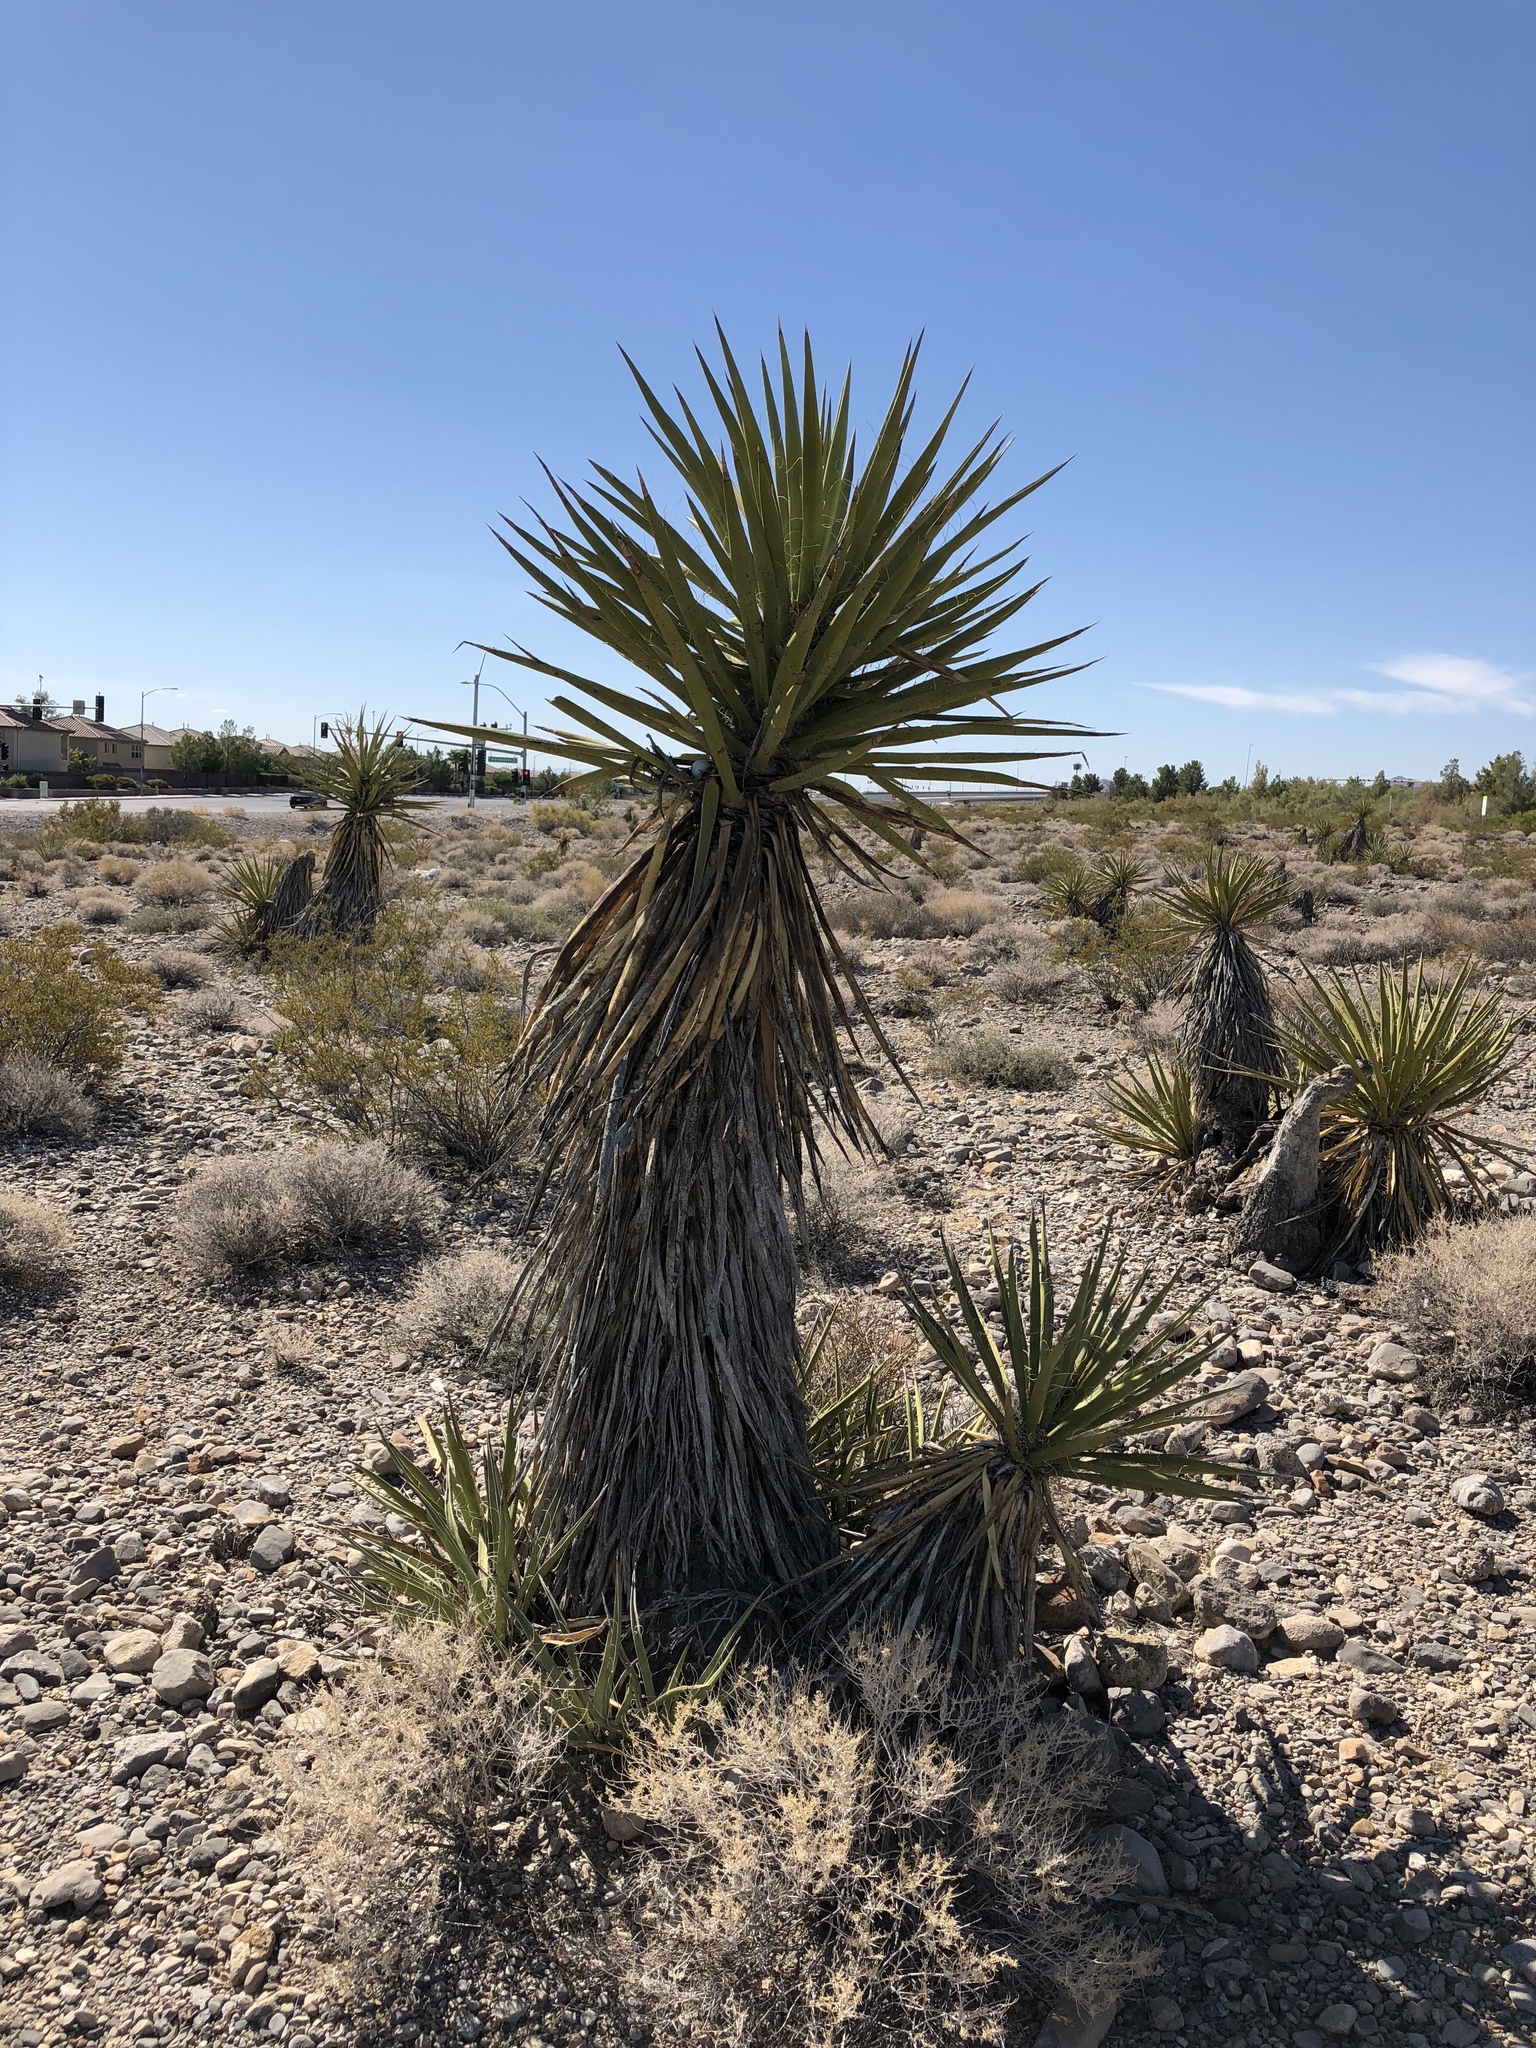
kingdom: Plantae
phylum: Tracheophyta
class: Liliopsida
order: Asparagales
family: Asparagaceae
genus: Yucca
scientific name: Yucca schidigera
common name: Mojave yucca
